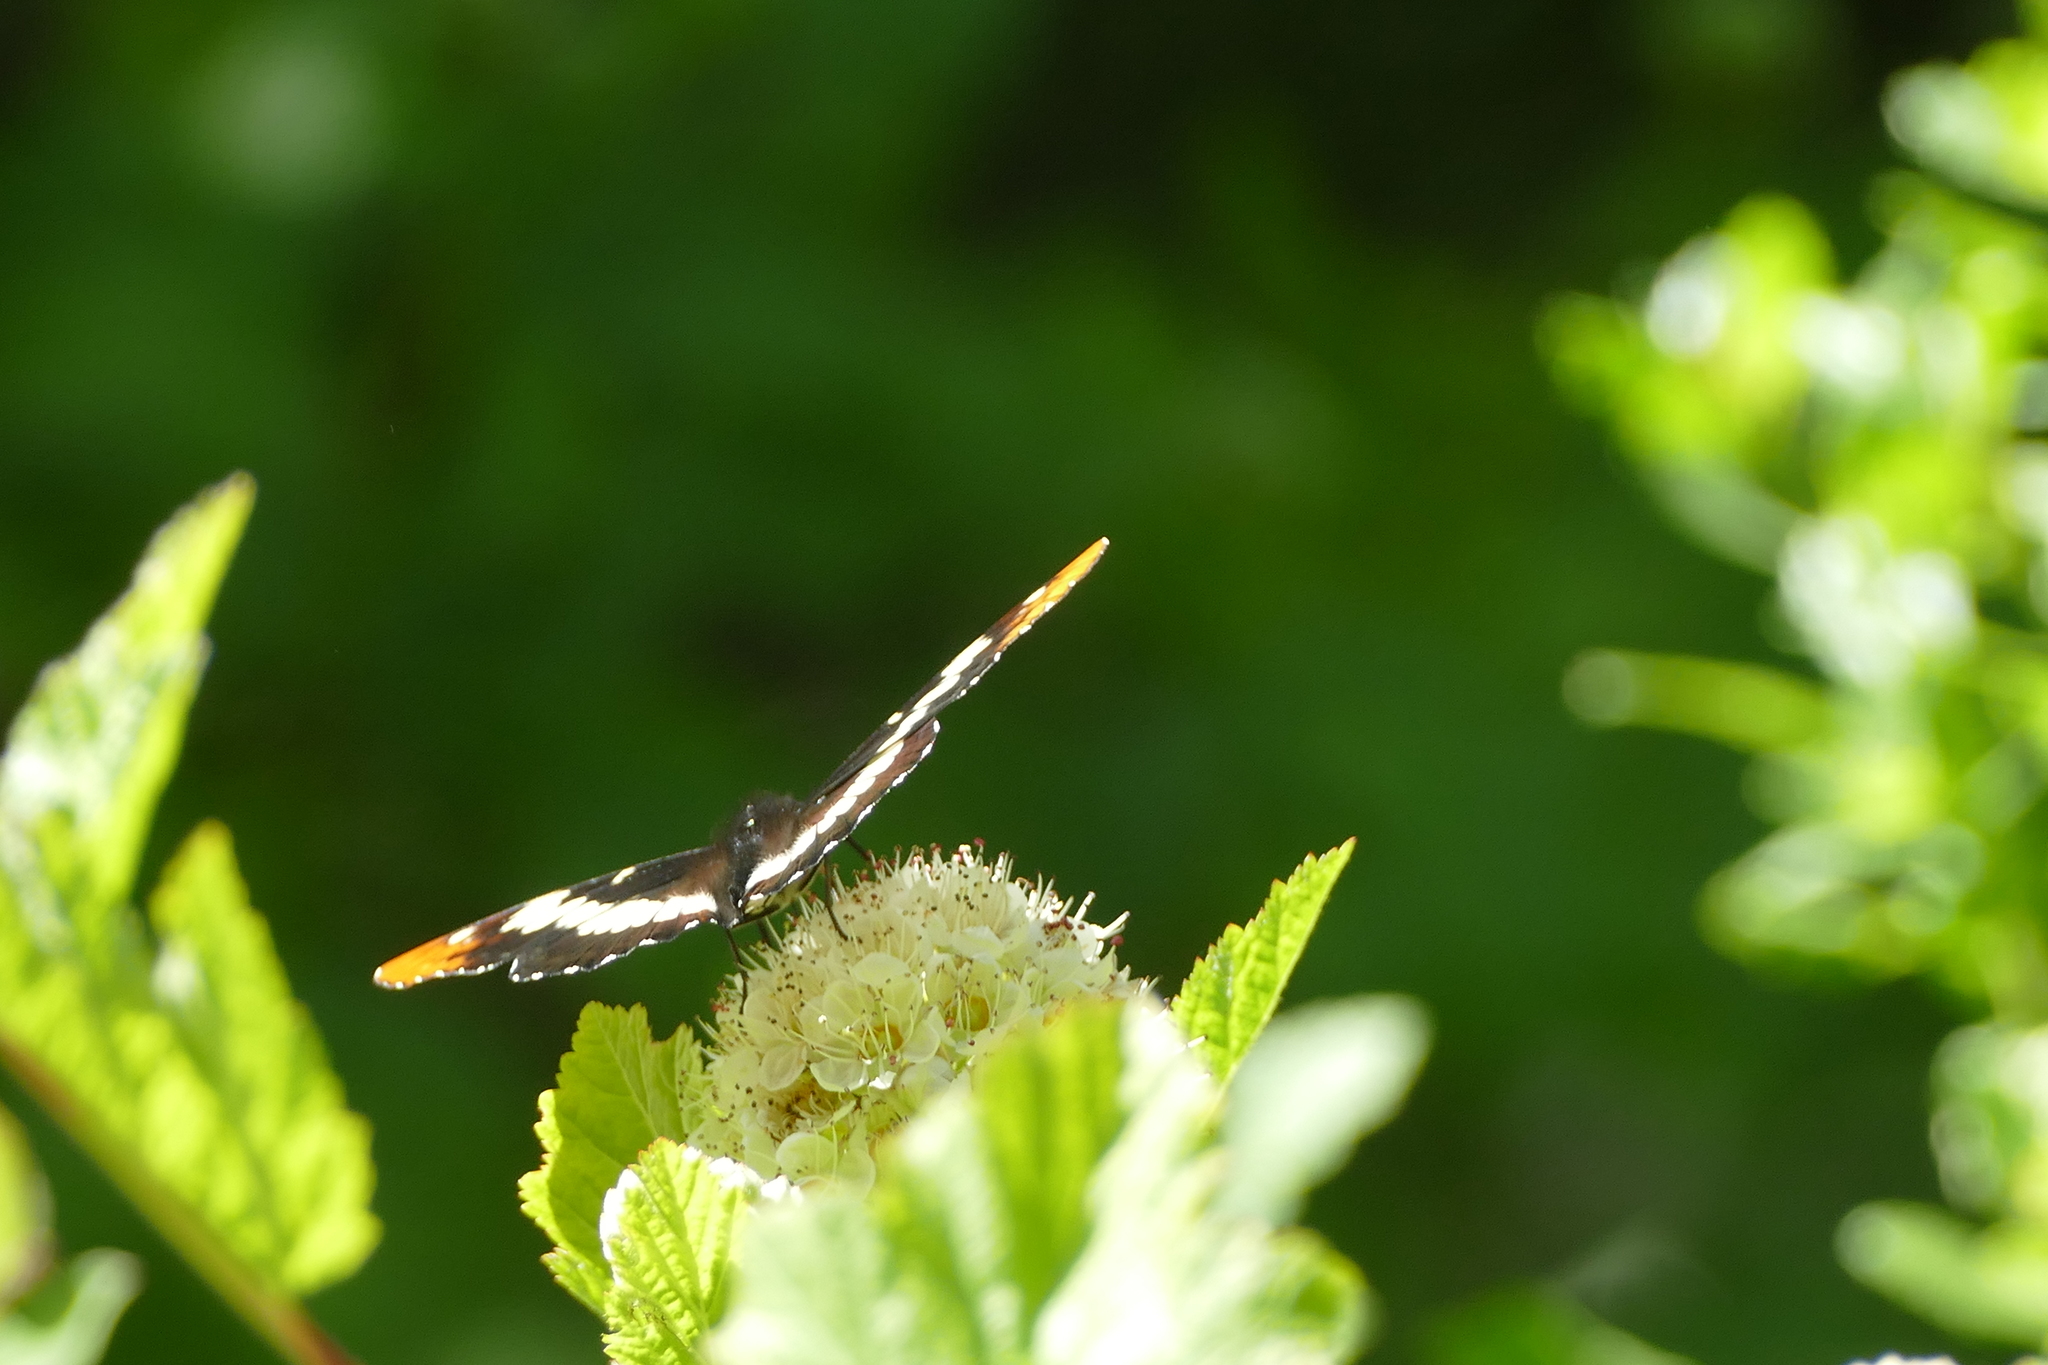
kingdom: Animalia
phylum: Arthropoda
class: Insecta
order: Lepidoptera
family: Nymphalidae
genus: Limenitis
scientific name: Limenitis lorquini
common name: Lorquin's admiral
